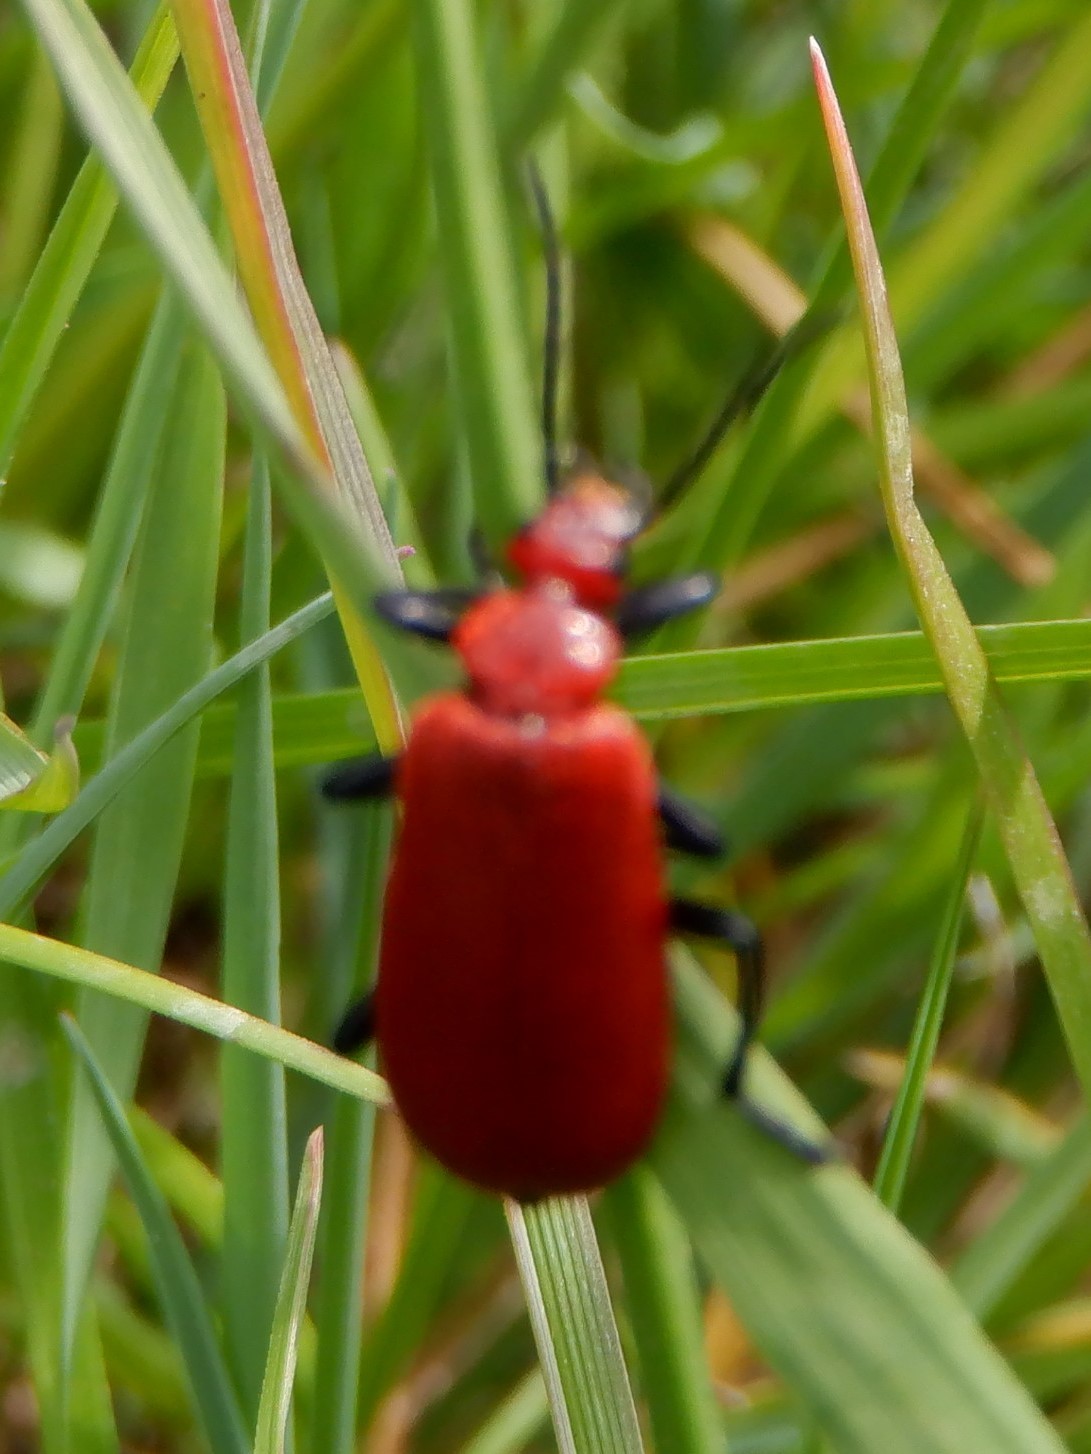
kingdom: Animalia
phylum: Arthropoda
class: Insecta
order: Coleoptera
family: Pyrochroidae
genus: Pyrochroa
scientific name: Pyrochroa serraticornis
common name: Red-headed cardinal beetle
